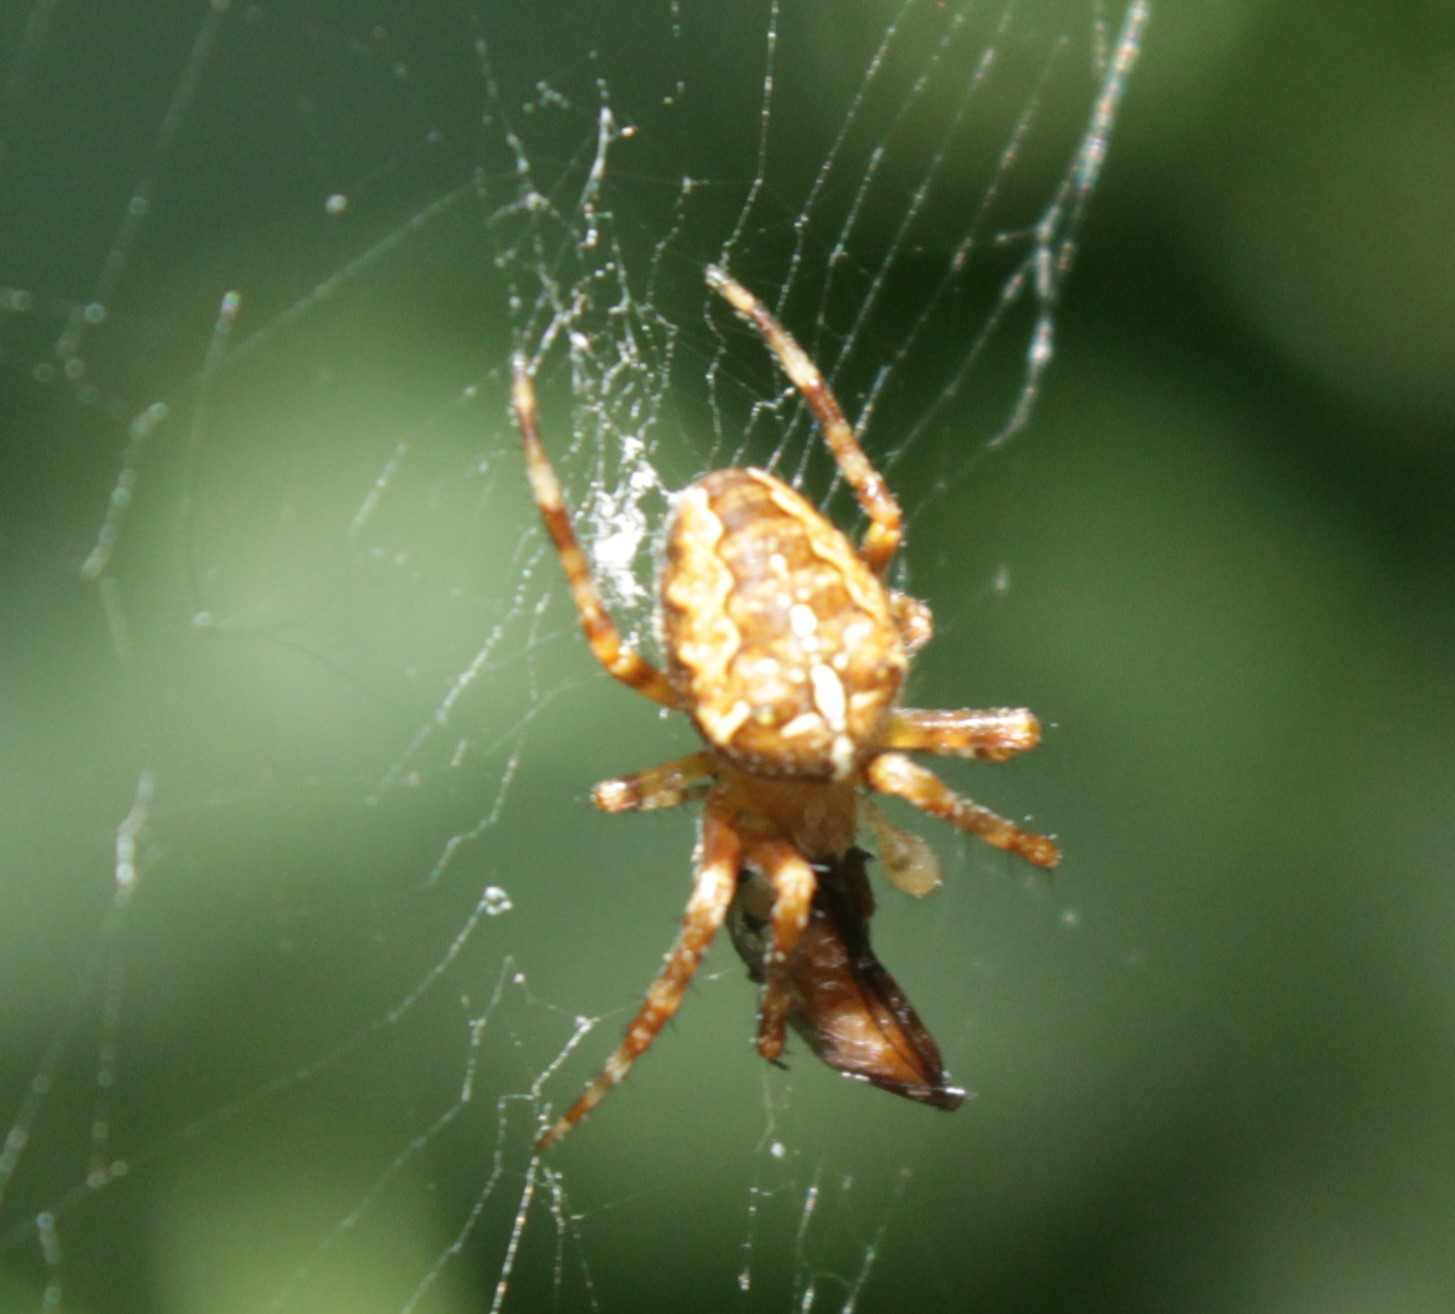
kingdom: Animalia
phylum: Arthropoda
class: Arachnida
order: Araneae
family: Araneidae
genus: Araneus
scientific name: Araneus diadematus
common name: Cross orbweaver
